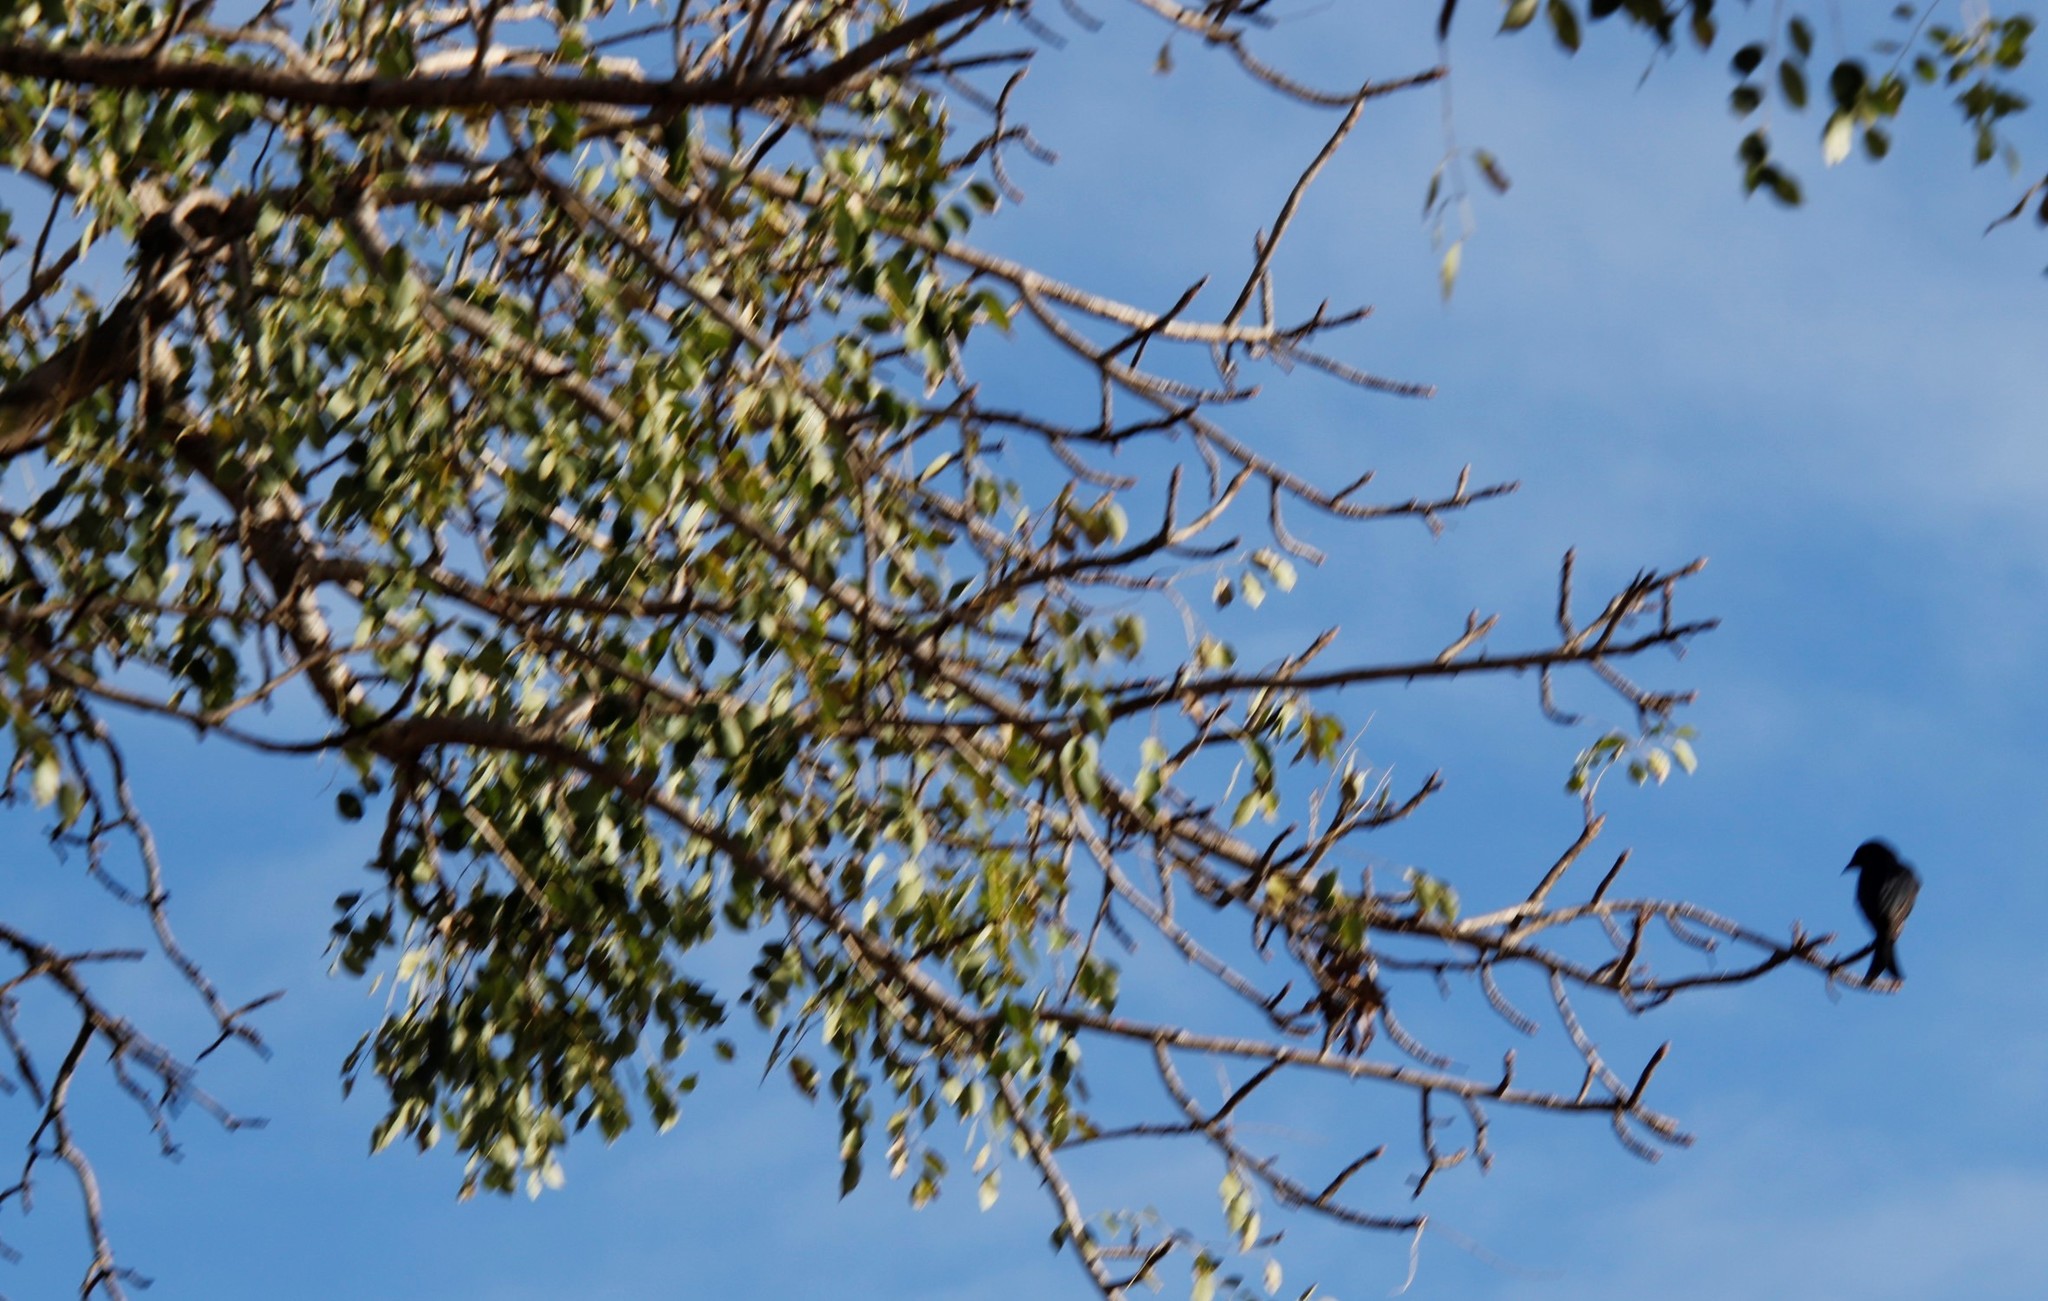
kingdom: Animalia
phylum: Chordata
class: Aves
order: Passeriformes
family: Dicruridae
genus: Dicrurus
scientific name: Dicrurus adsimilis
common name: Fork-tailed drongo
